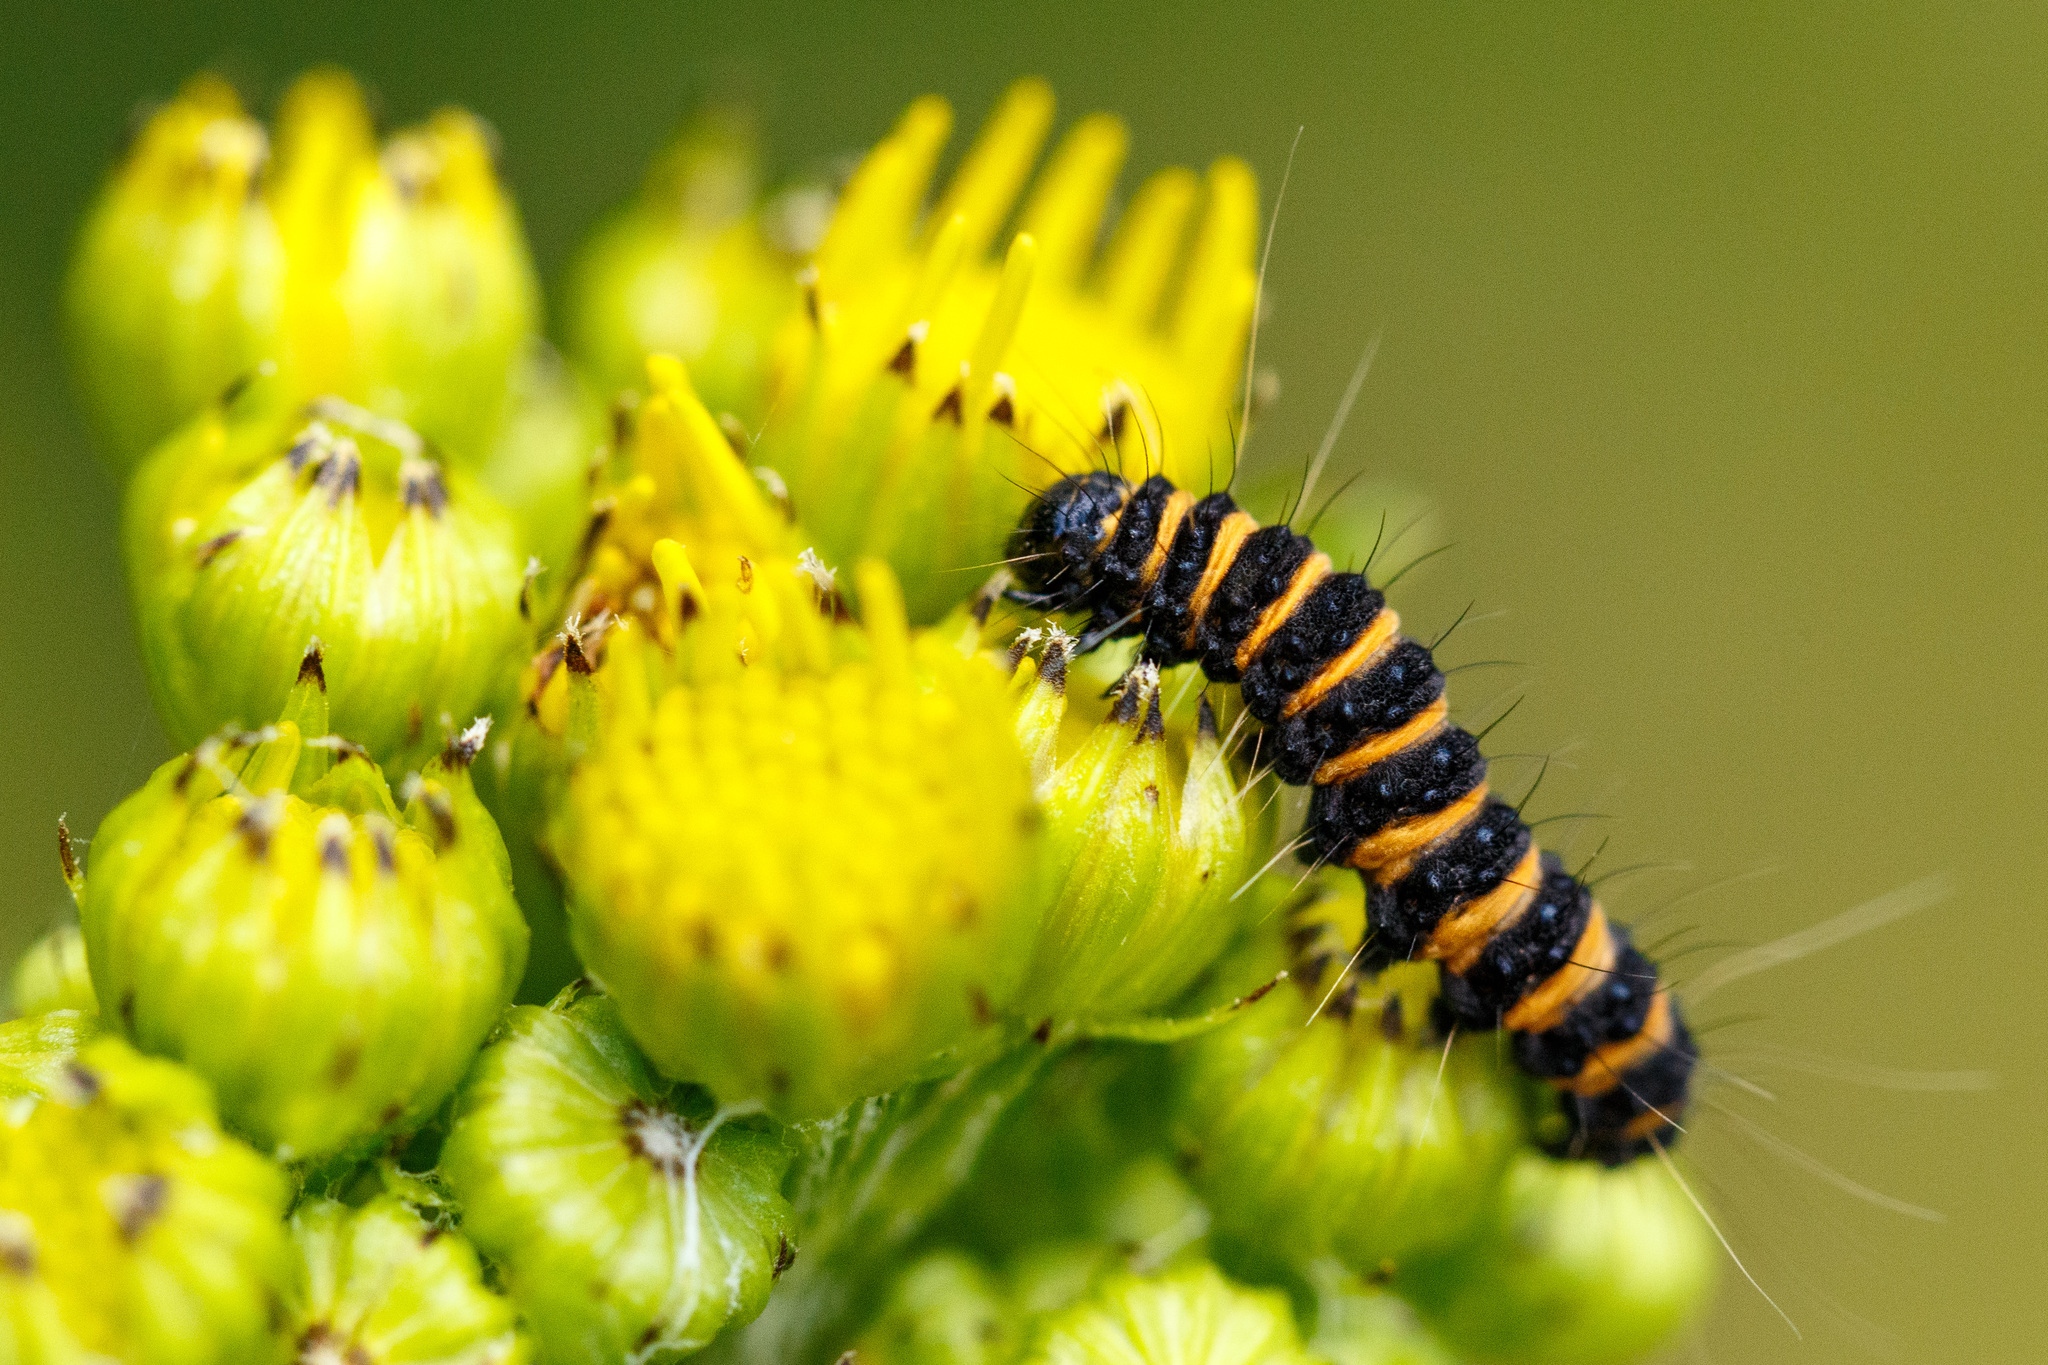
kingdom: Animalia
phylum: Arthropoda
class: Insecta
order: Lepidoptera
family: Erebidae
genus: Tyria
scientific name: Tyria jacobaeae
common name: Cinnabar
